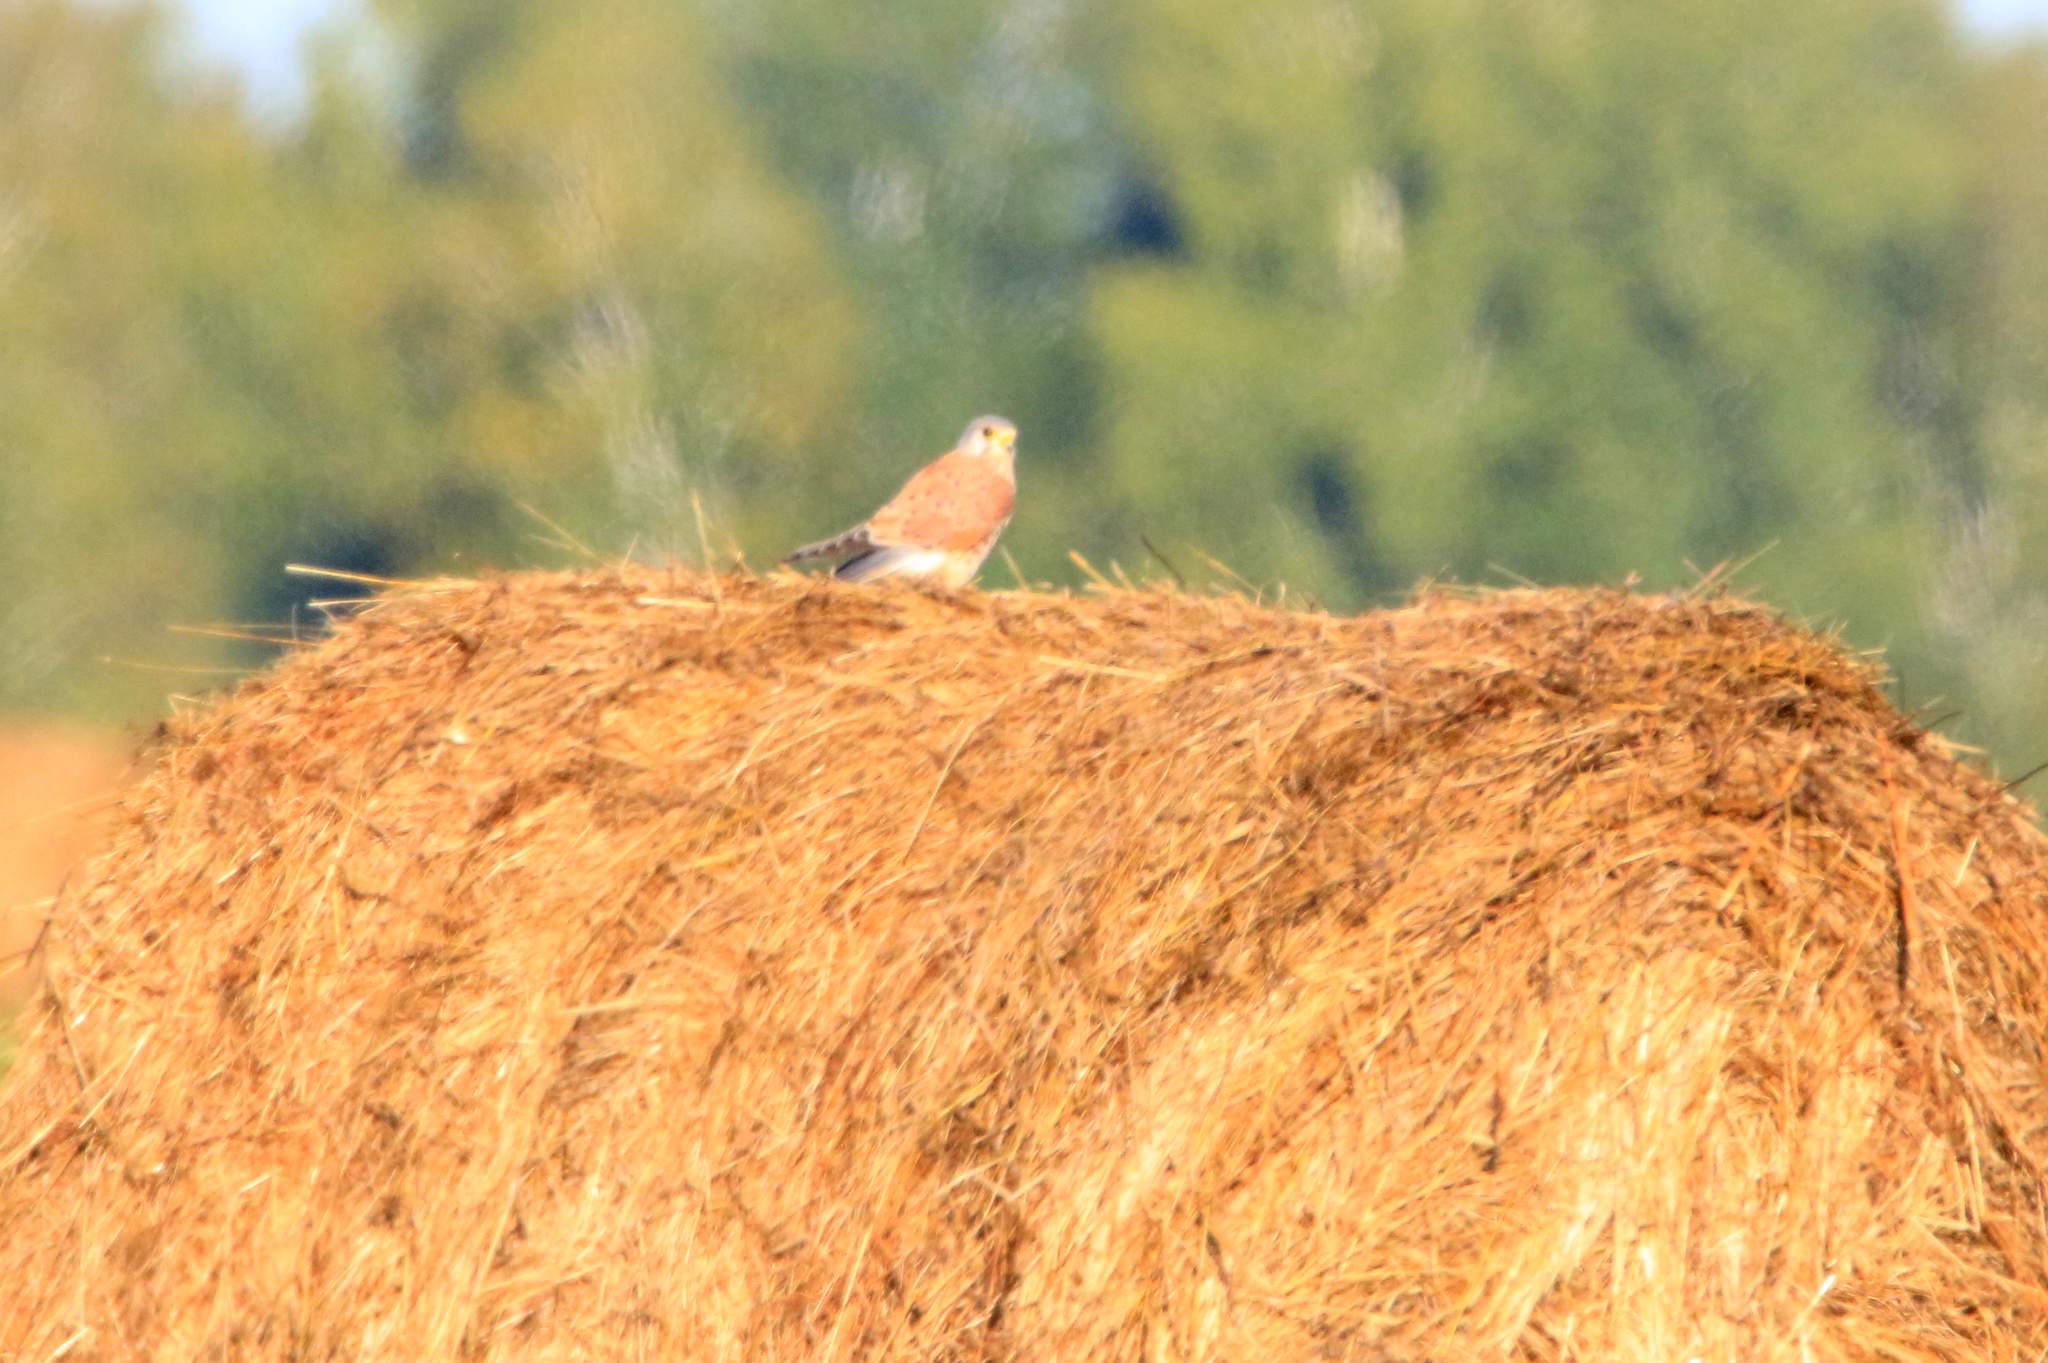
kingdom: Animalia
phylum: Chordata
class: Aves
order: Falconiformes
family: Falconidae
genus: Falco
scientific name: Falco tinnunculus
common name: Common kestrel
